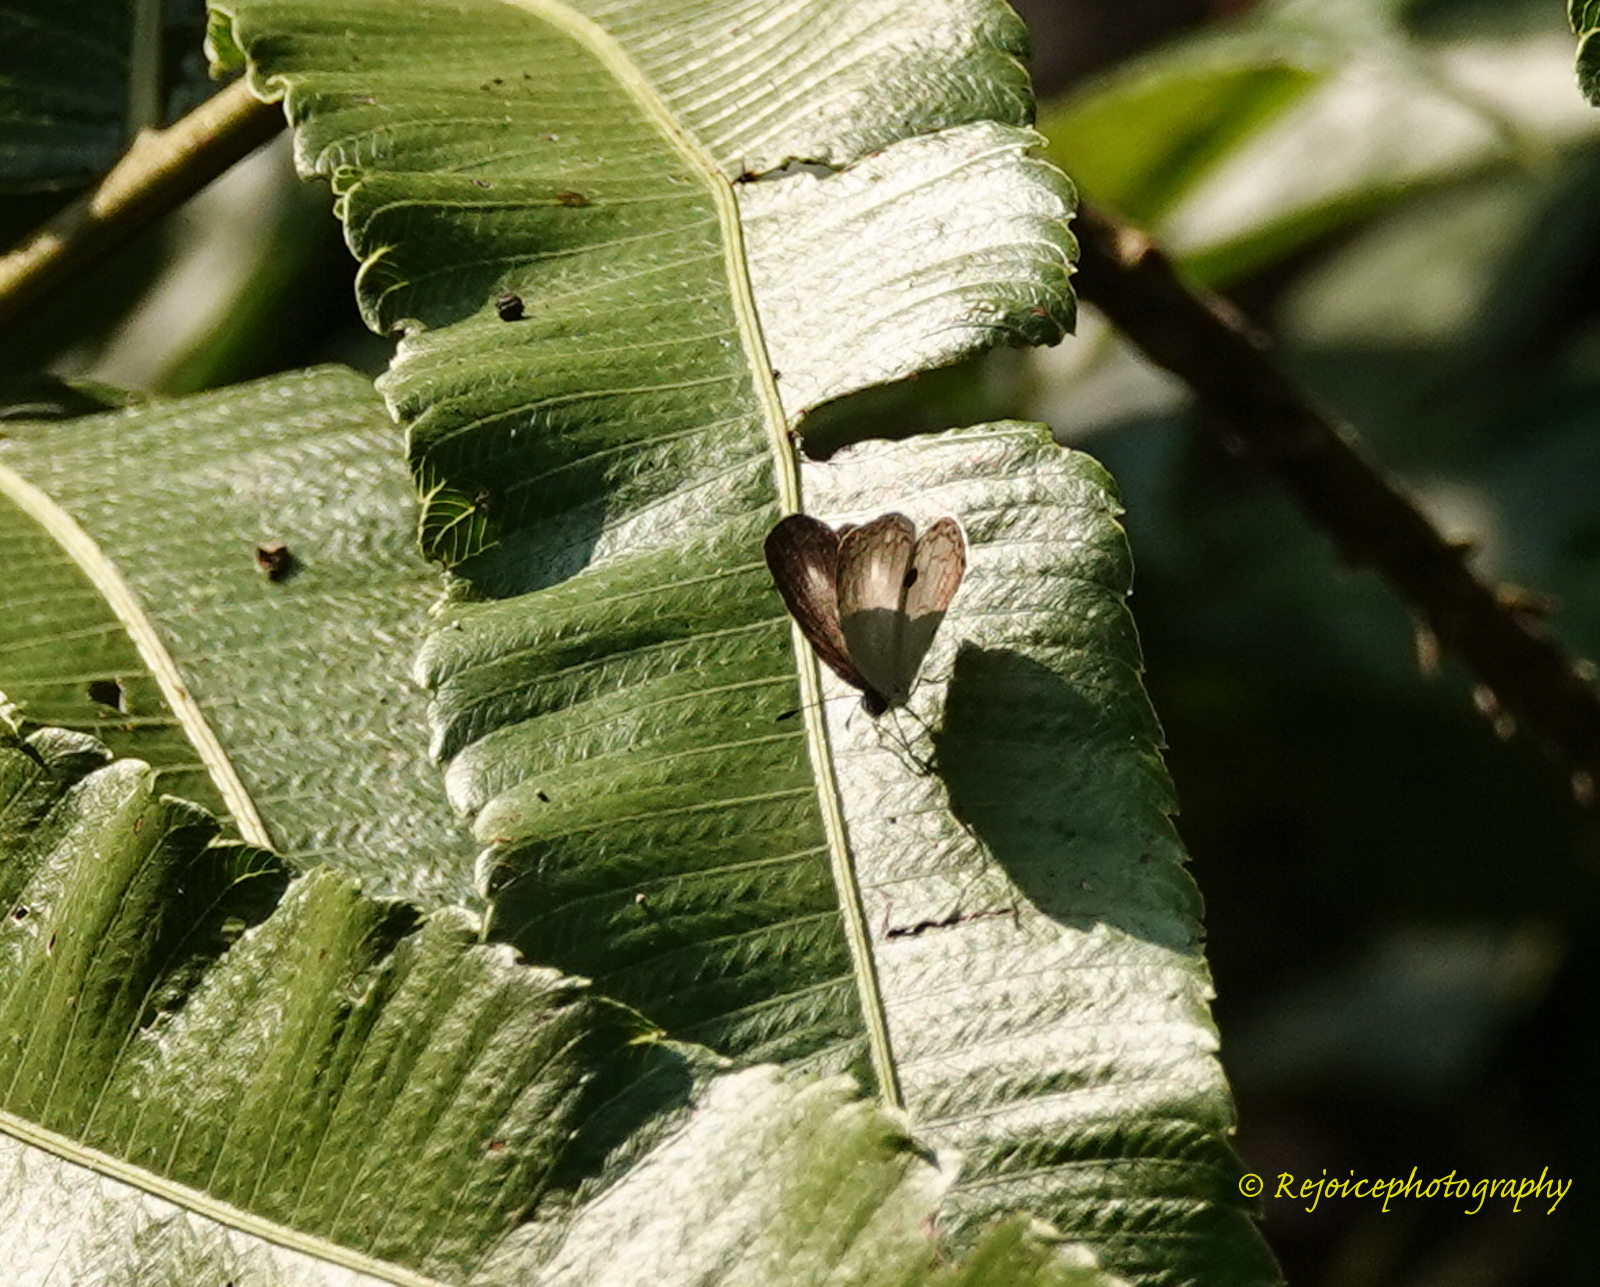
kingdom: Animalia
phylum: Arthropoda
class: Insecta
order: Lepidoptera
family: Lycaenidae
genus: Neopithecops
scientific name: Neopithecops zalmora
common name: Quaker
